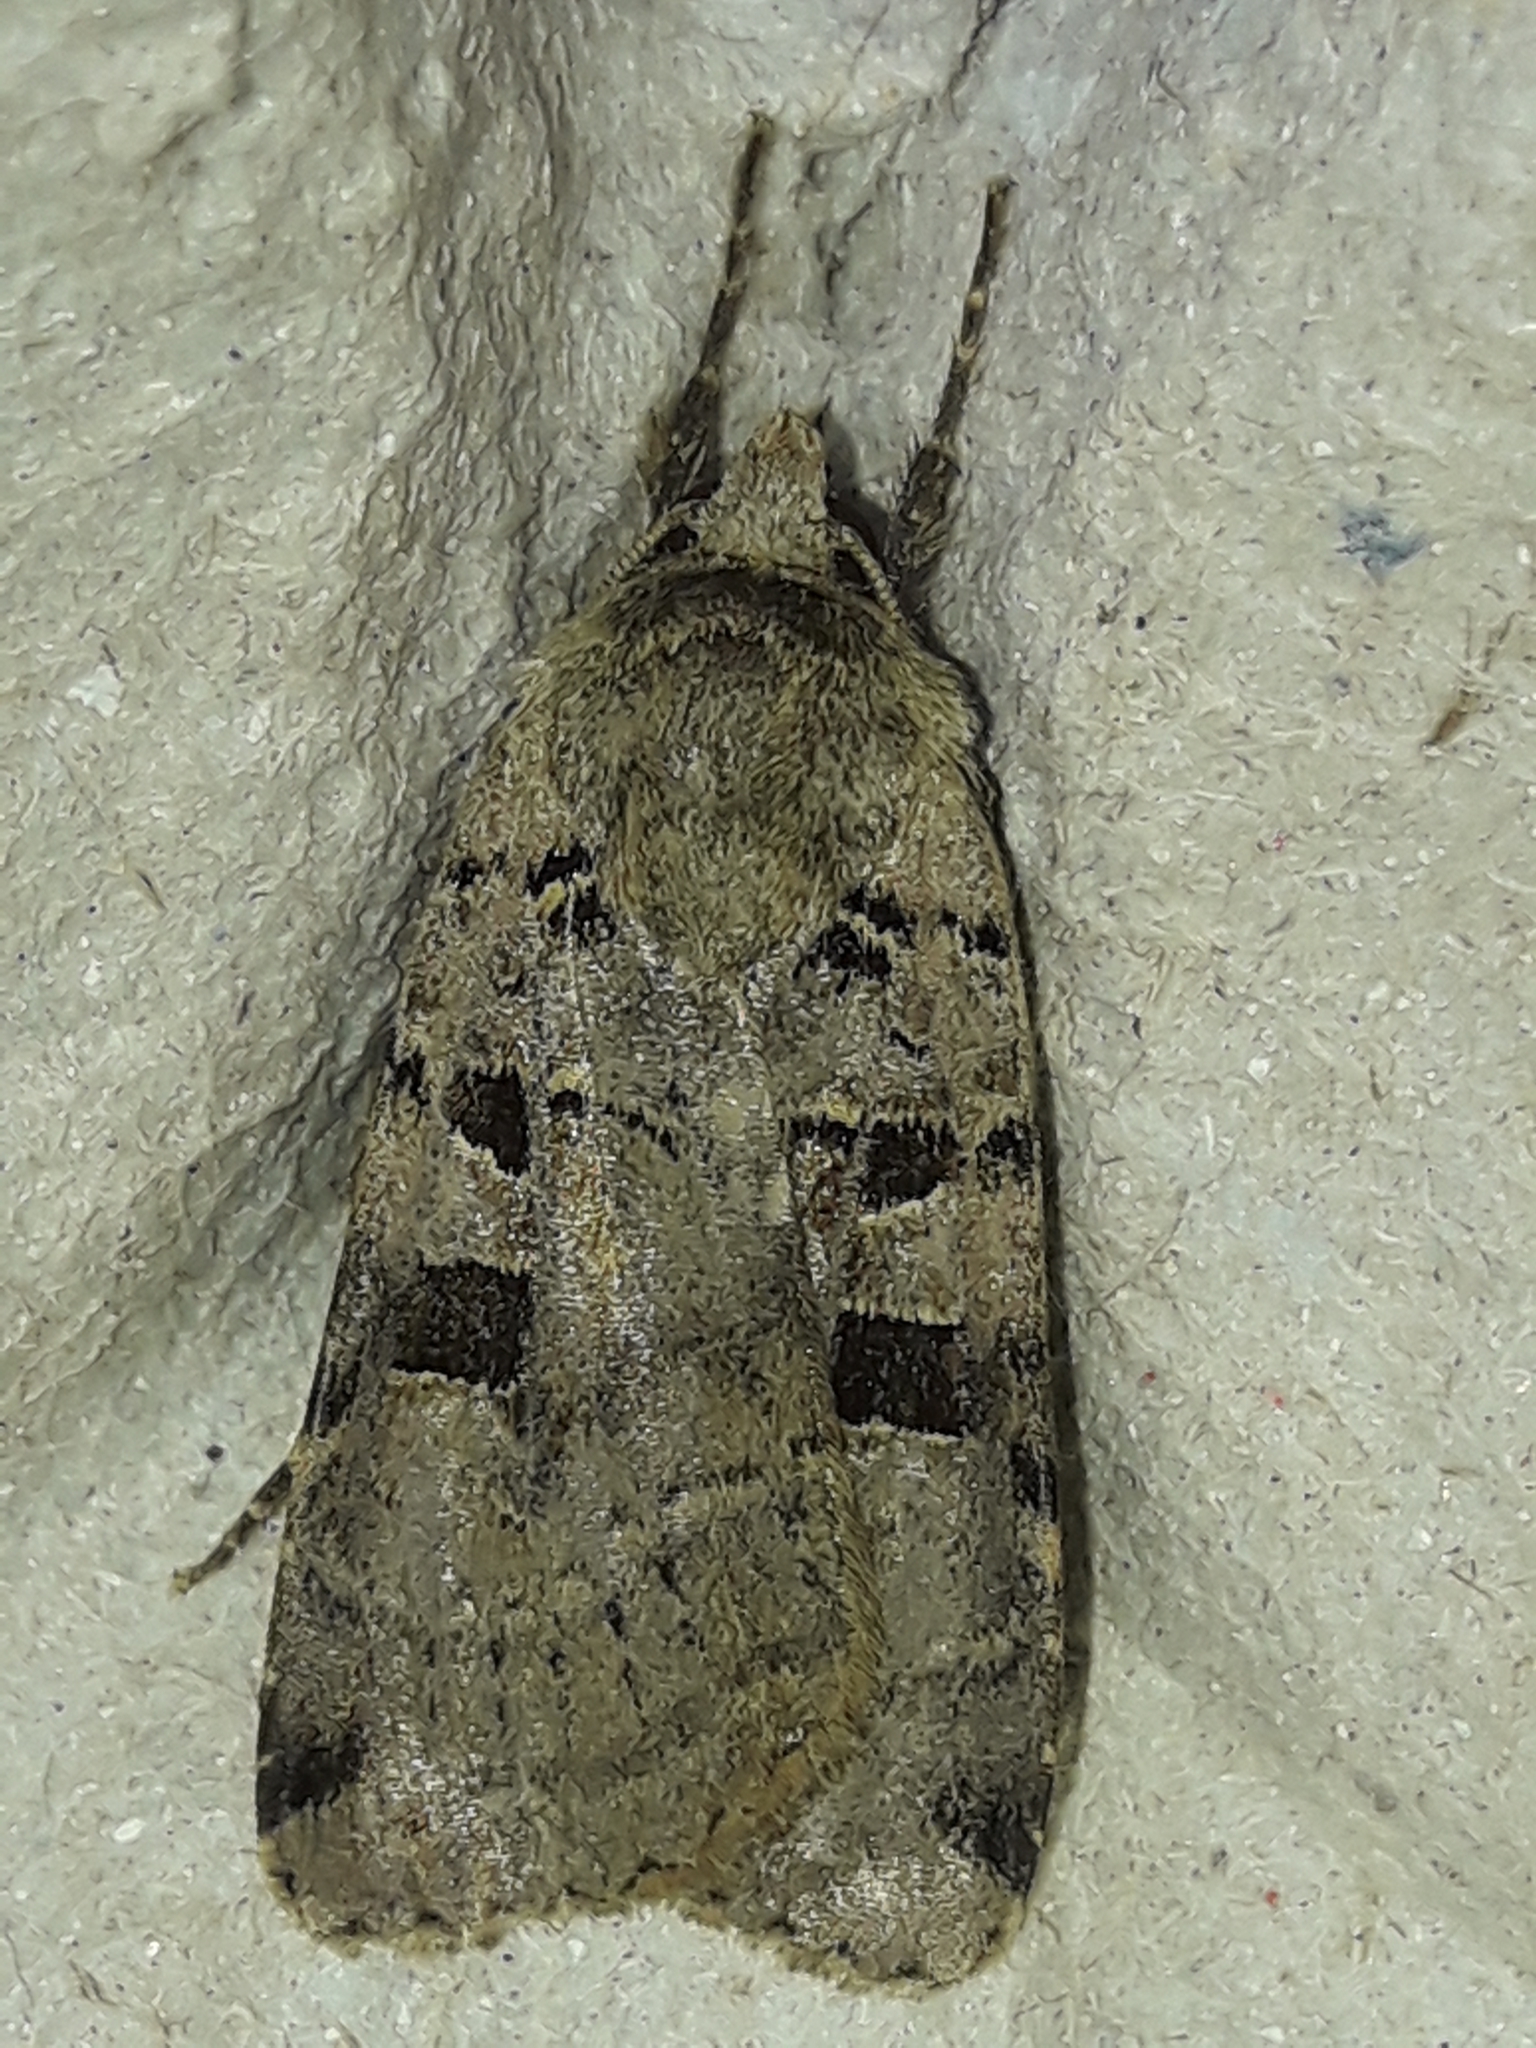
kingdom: Animalia
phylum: Arthropoda
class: Insecta
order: Lepidoptera
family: Noctuidae
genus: Xestia
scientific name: Xestia triangulum
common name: Double square-spot
